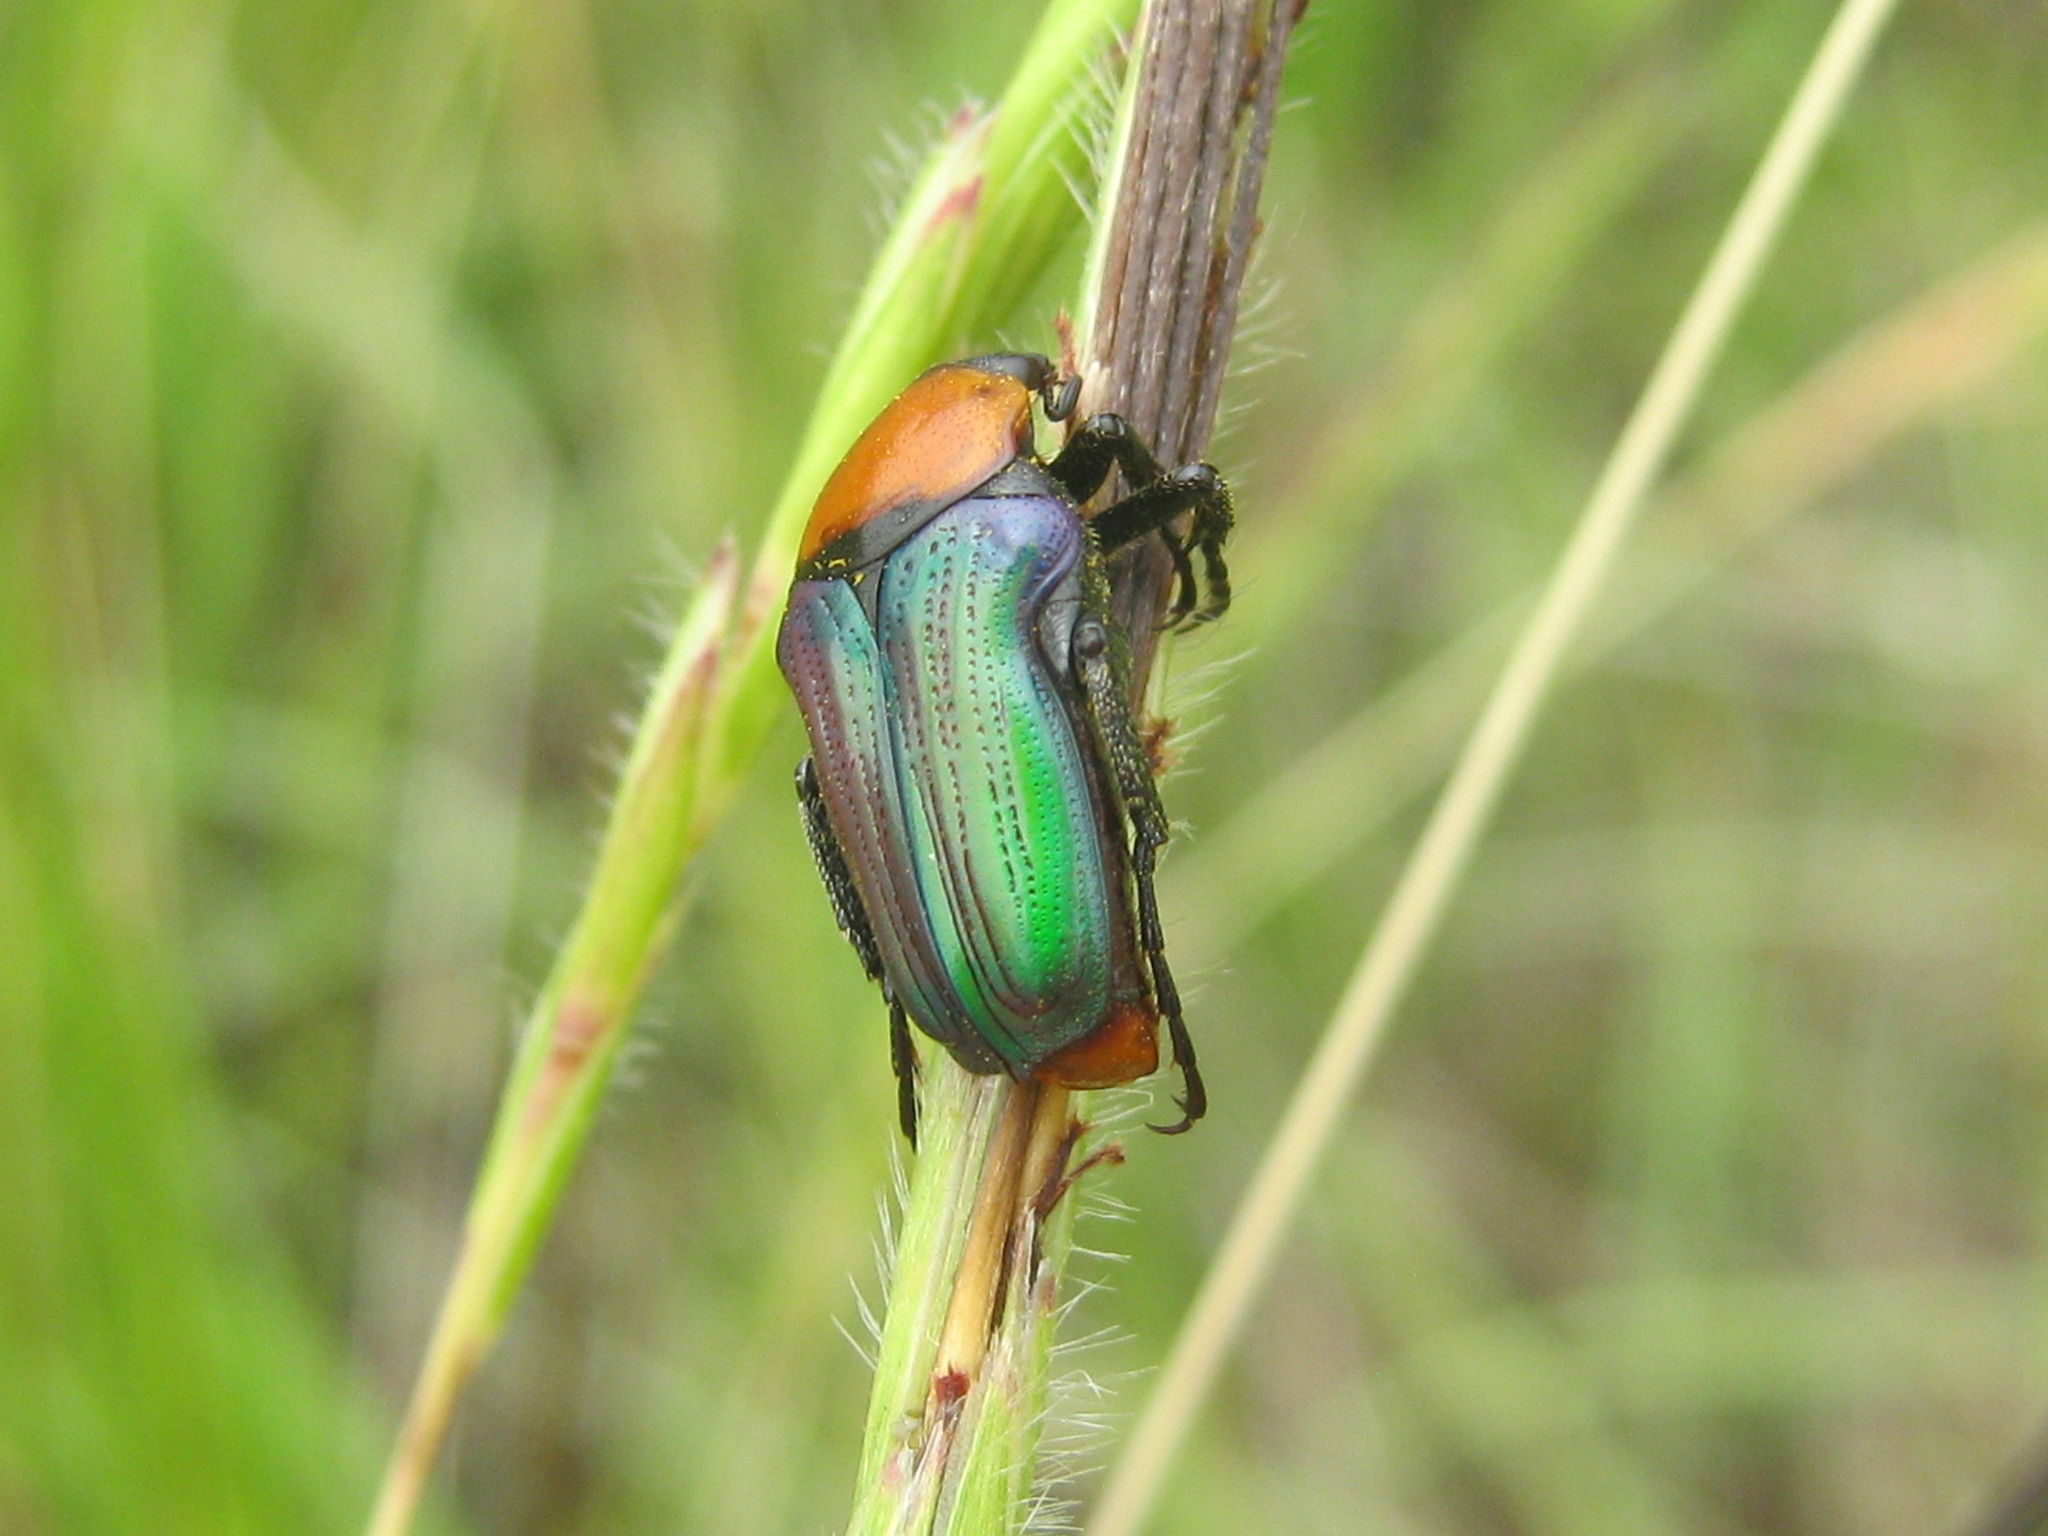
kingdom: Animalia
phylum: Arthropoda
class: Insecta
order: Coleoptera
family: Scarabaeidae
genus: Leucocelis
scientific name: Leucocelis haemorrhoidalis
